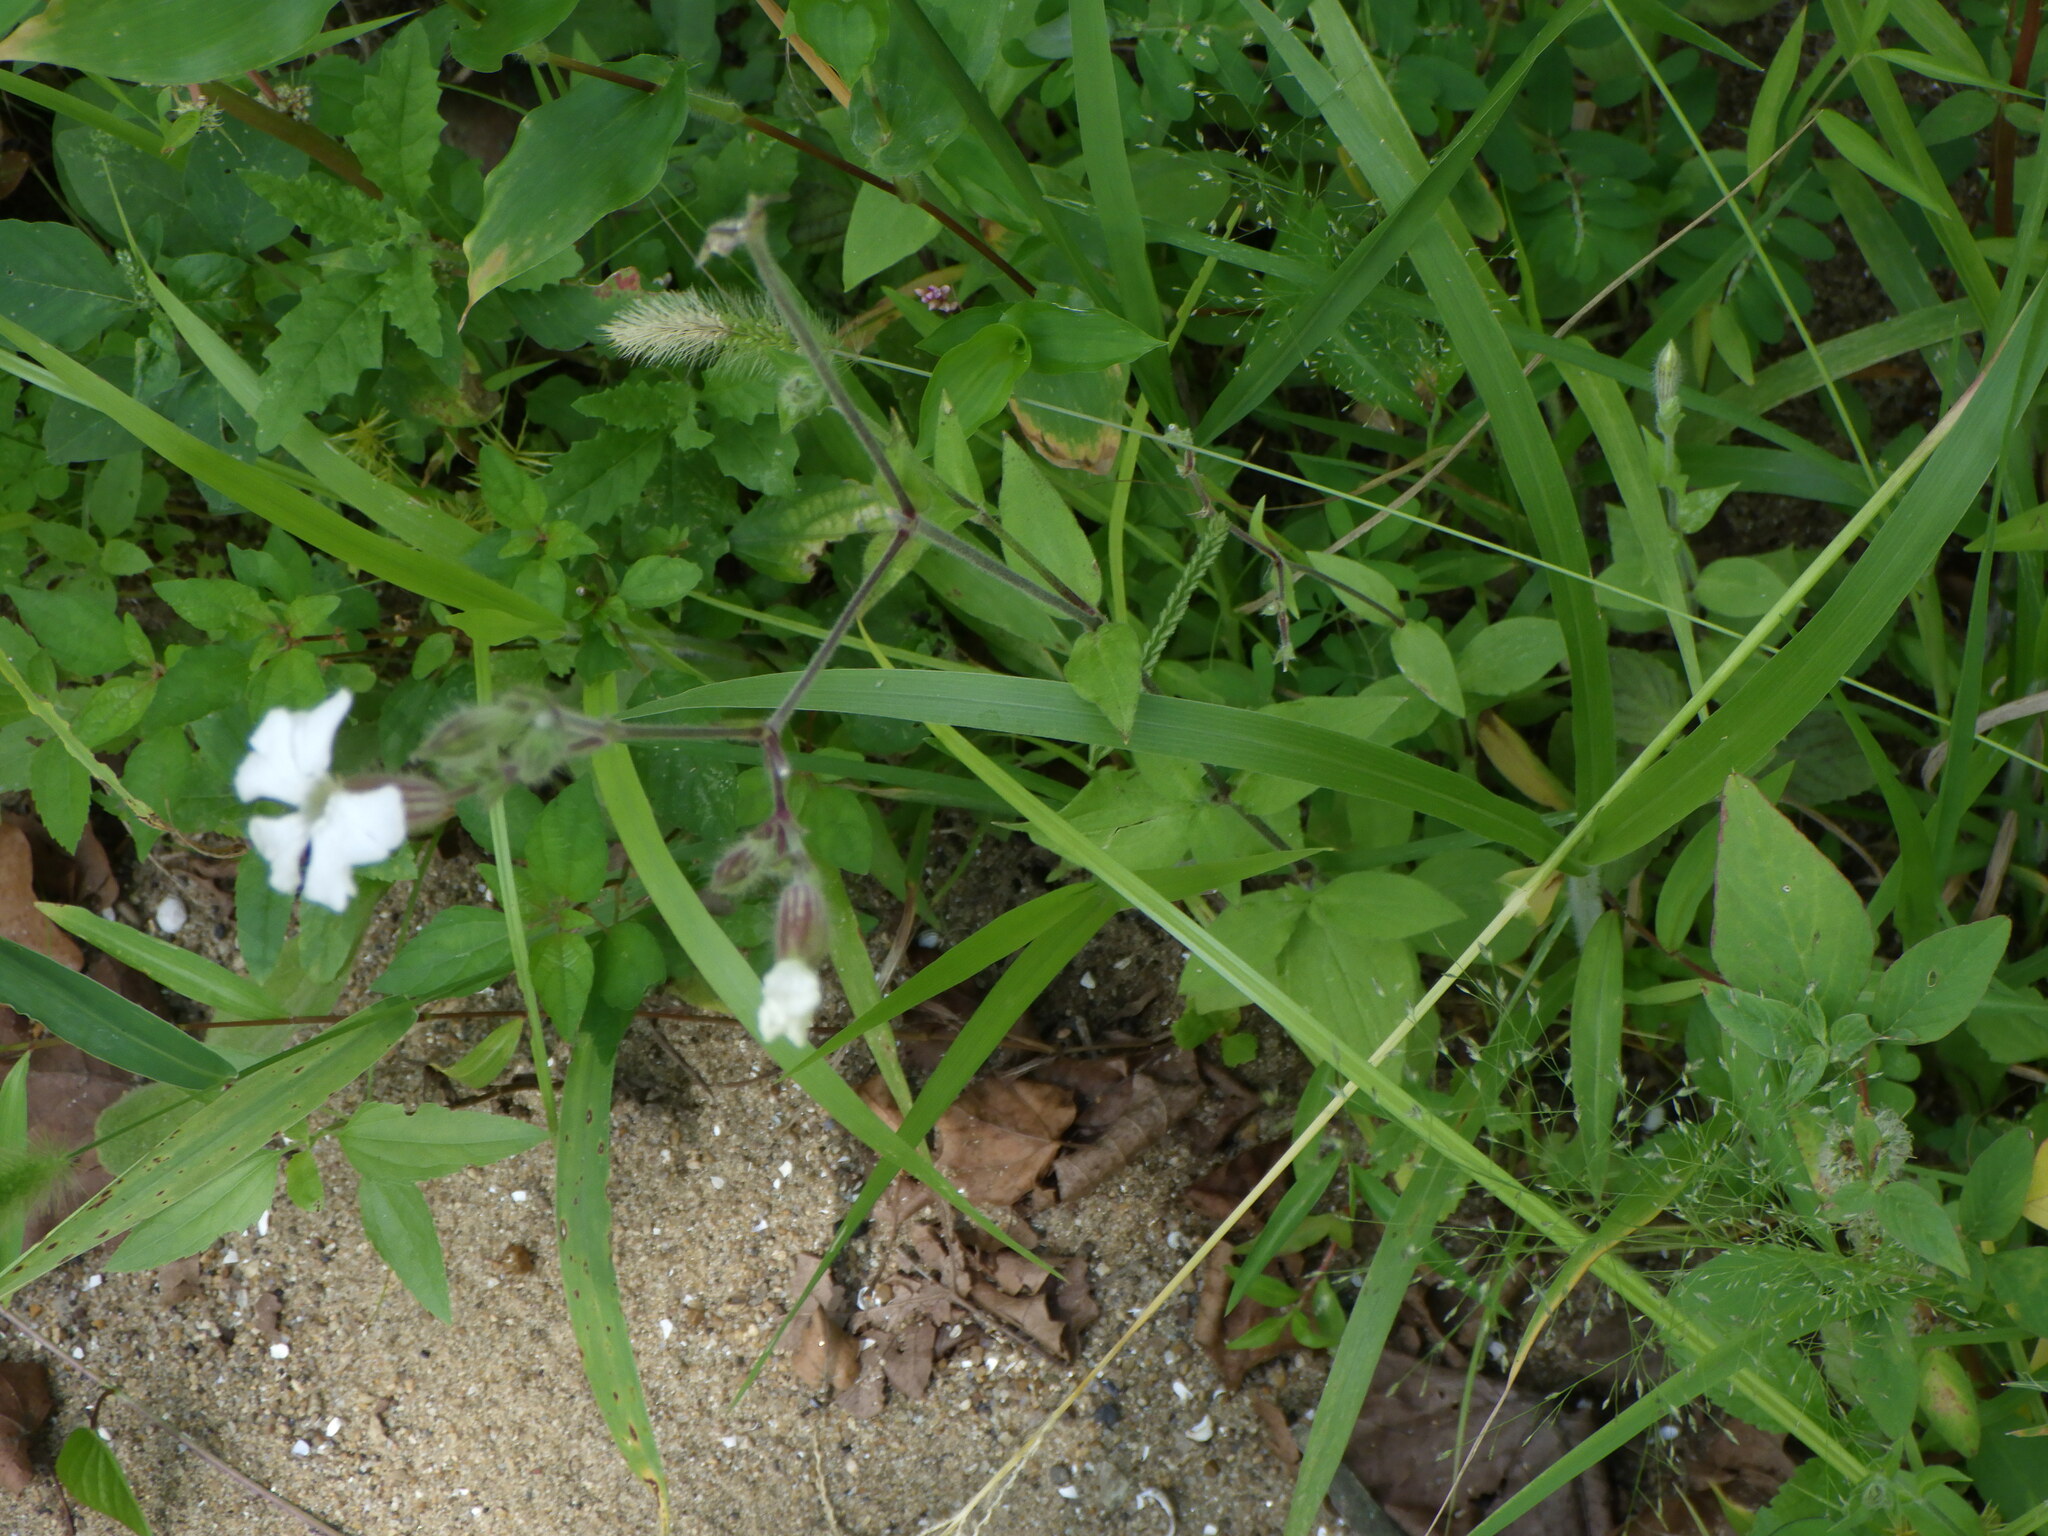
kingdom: Plantae
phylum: Tracheophyta
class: Magnoliopsida
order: Caryophyllales
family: Caryophyllaceae
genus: Silene
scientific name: Silene latifolia
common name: White campion
